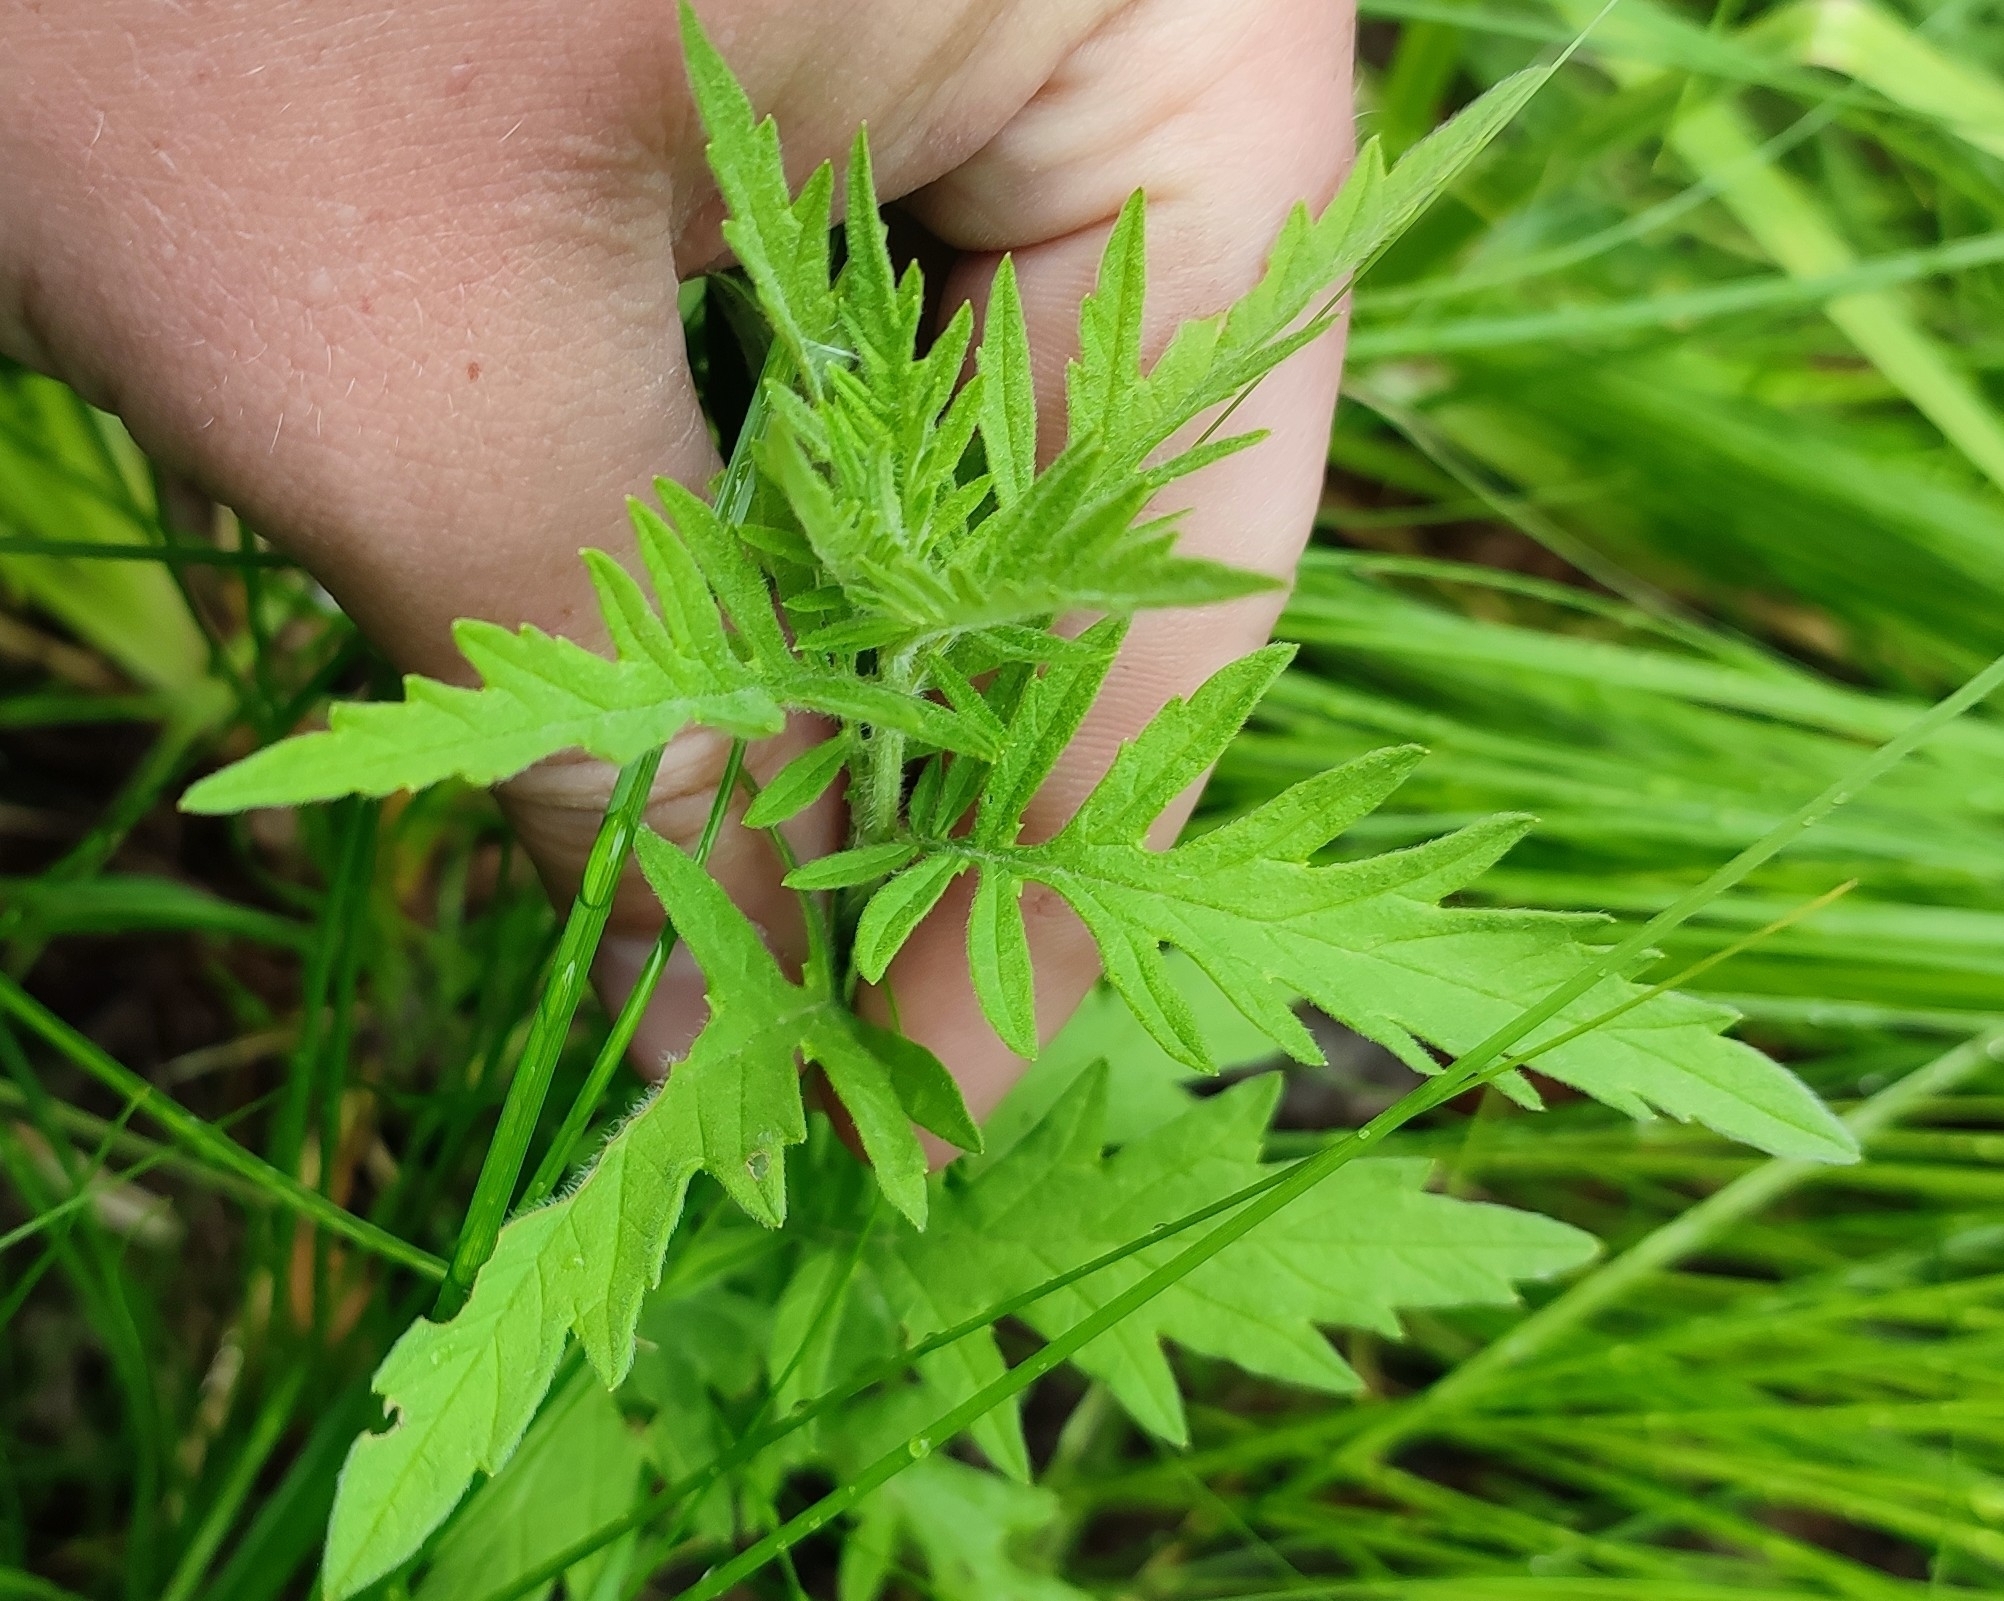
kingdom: Plantae
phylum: Tracheophyta
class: Magnoliopsida
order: Lamiales
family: Lamiaceae
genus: Lycopus
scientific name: Lycopus exaltatus
